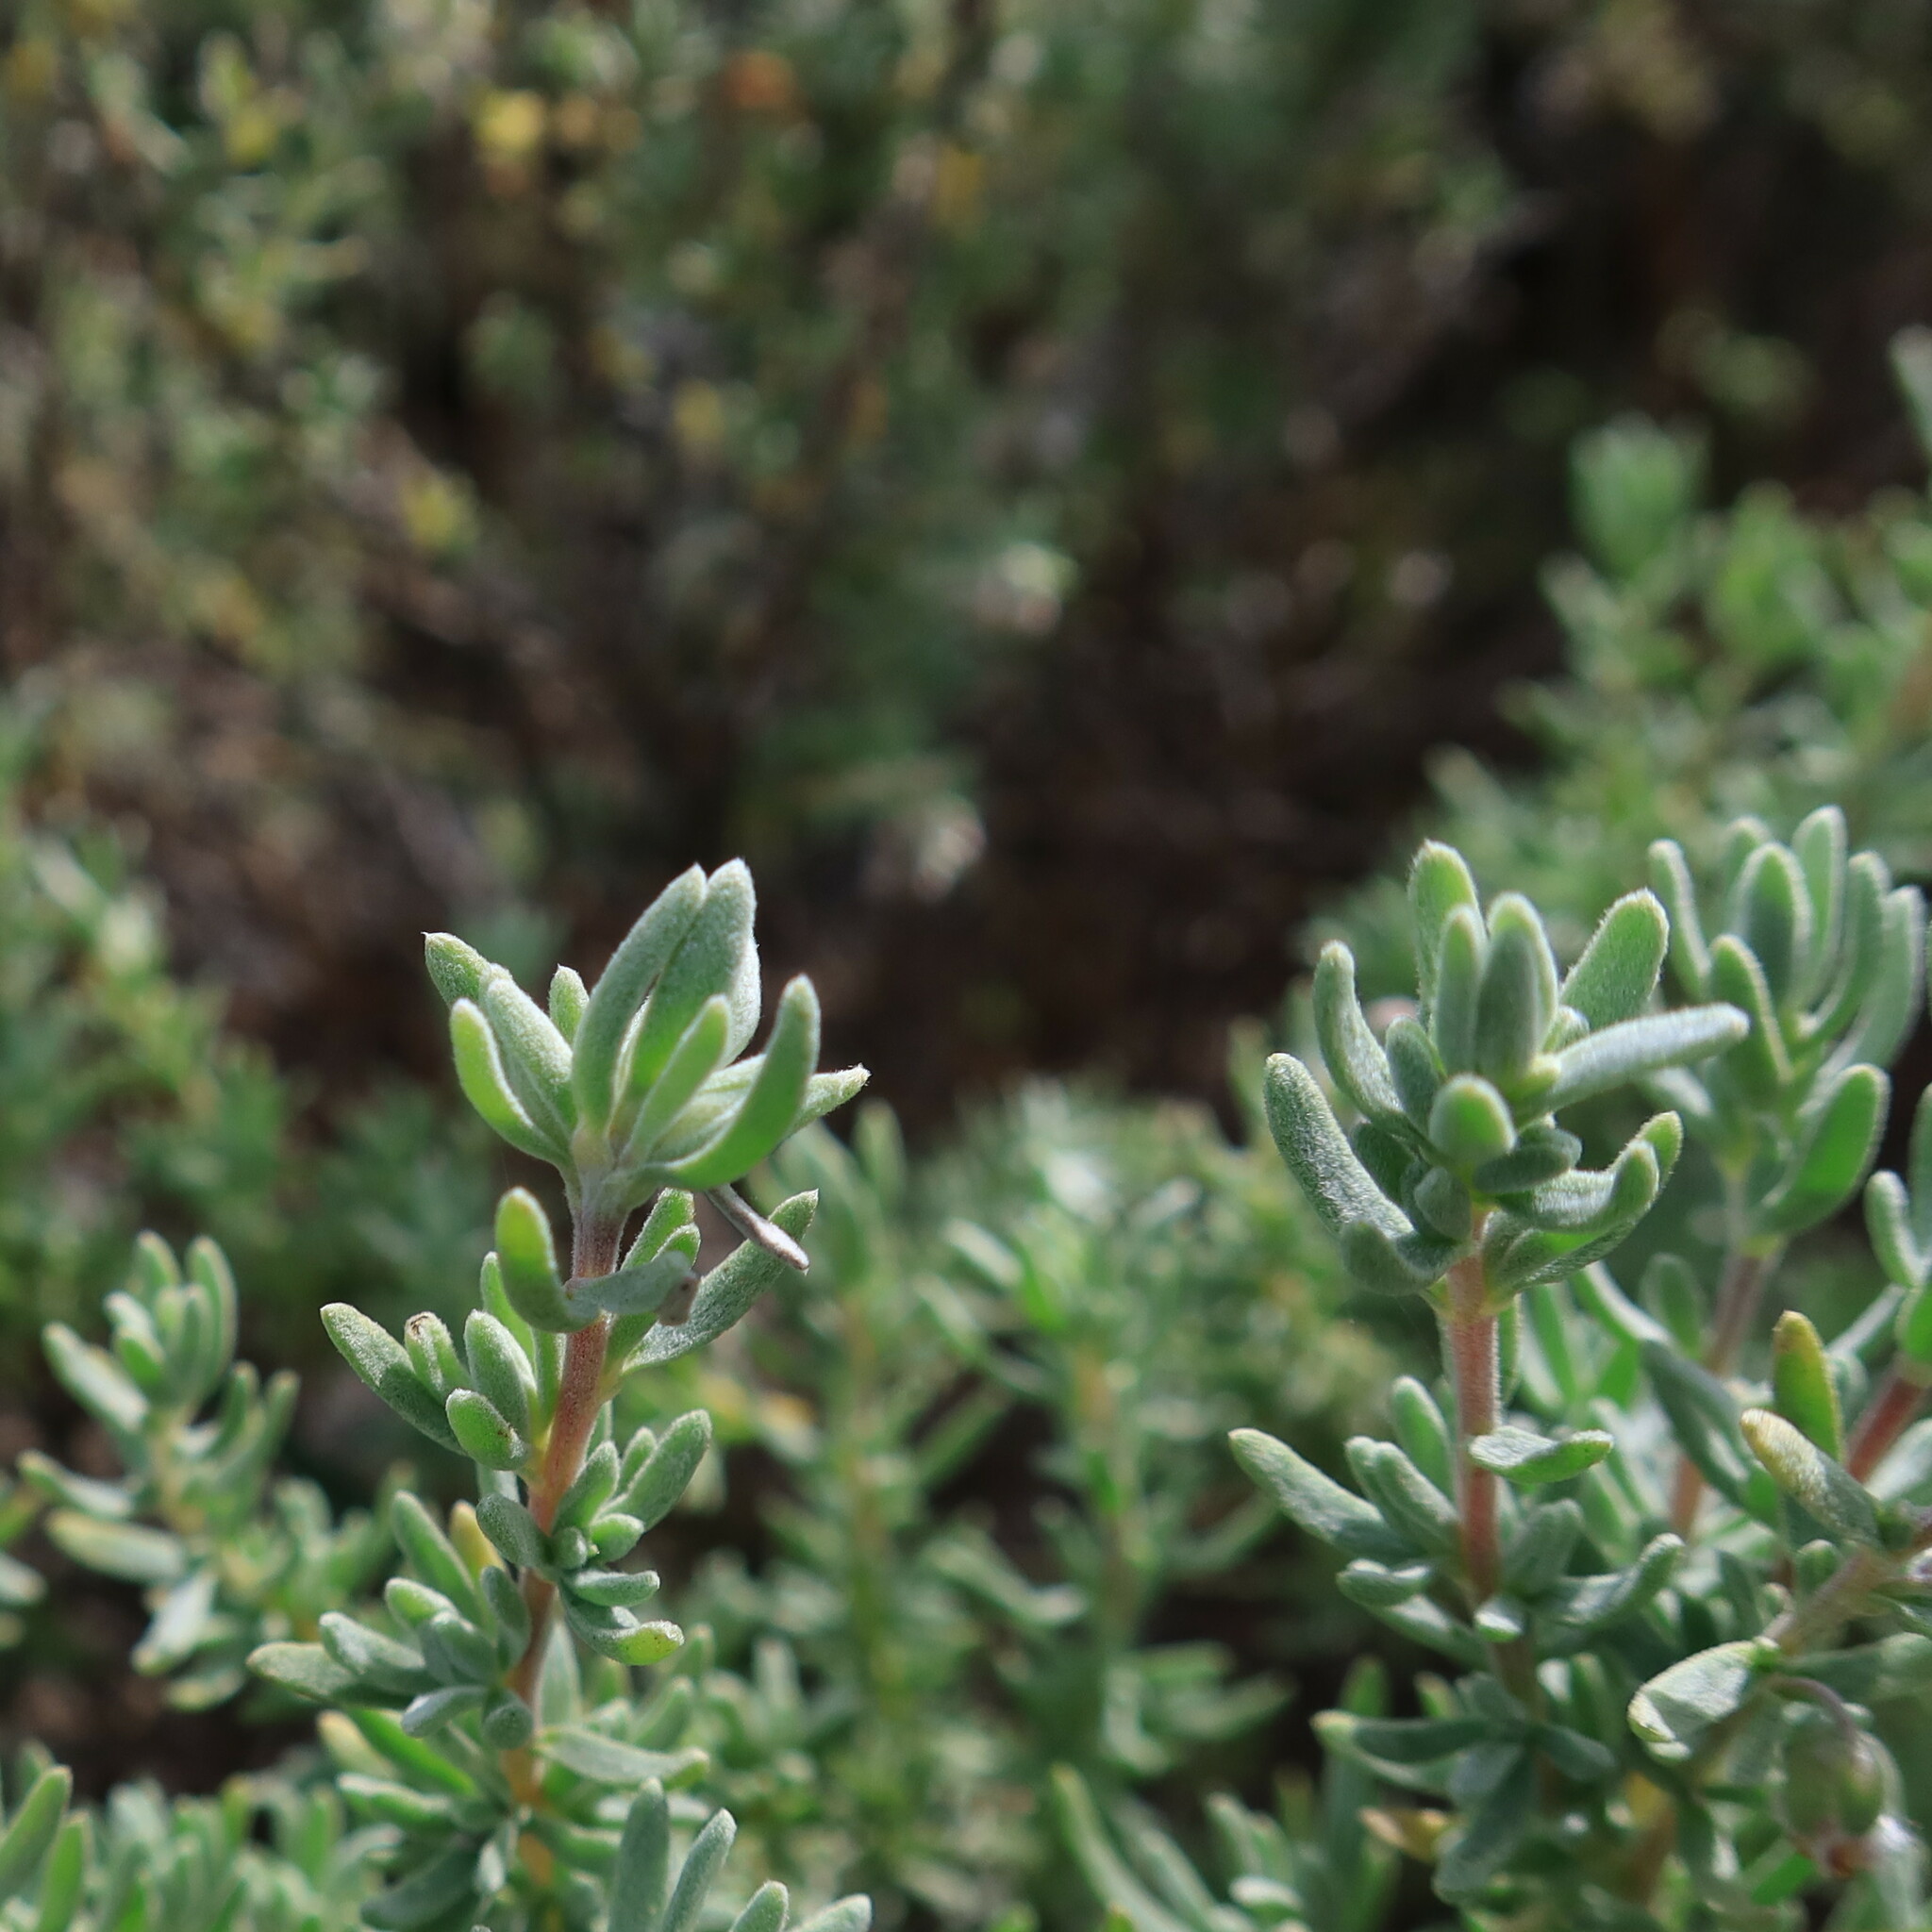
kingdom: Plantae
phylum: Tracheophyta
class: Magnoliopsida
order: Asterales
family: Asteraceae
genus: Eriocephalus
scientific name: Eriocephalus racemosus
